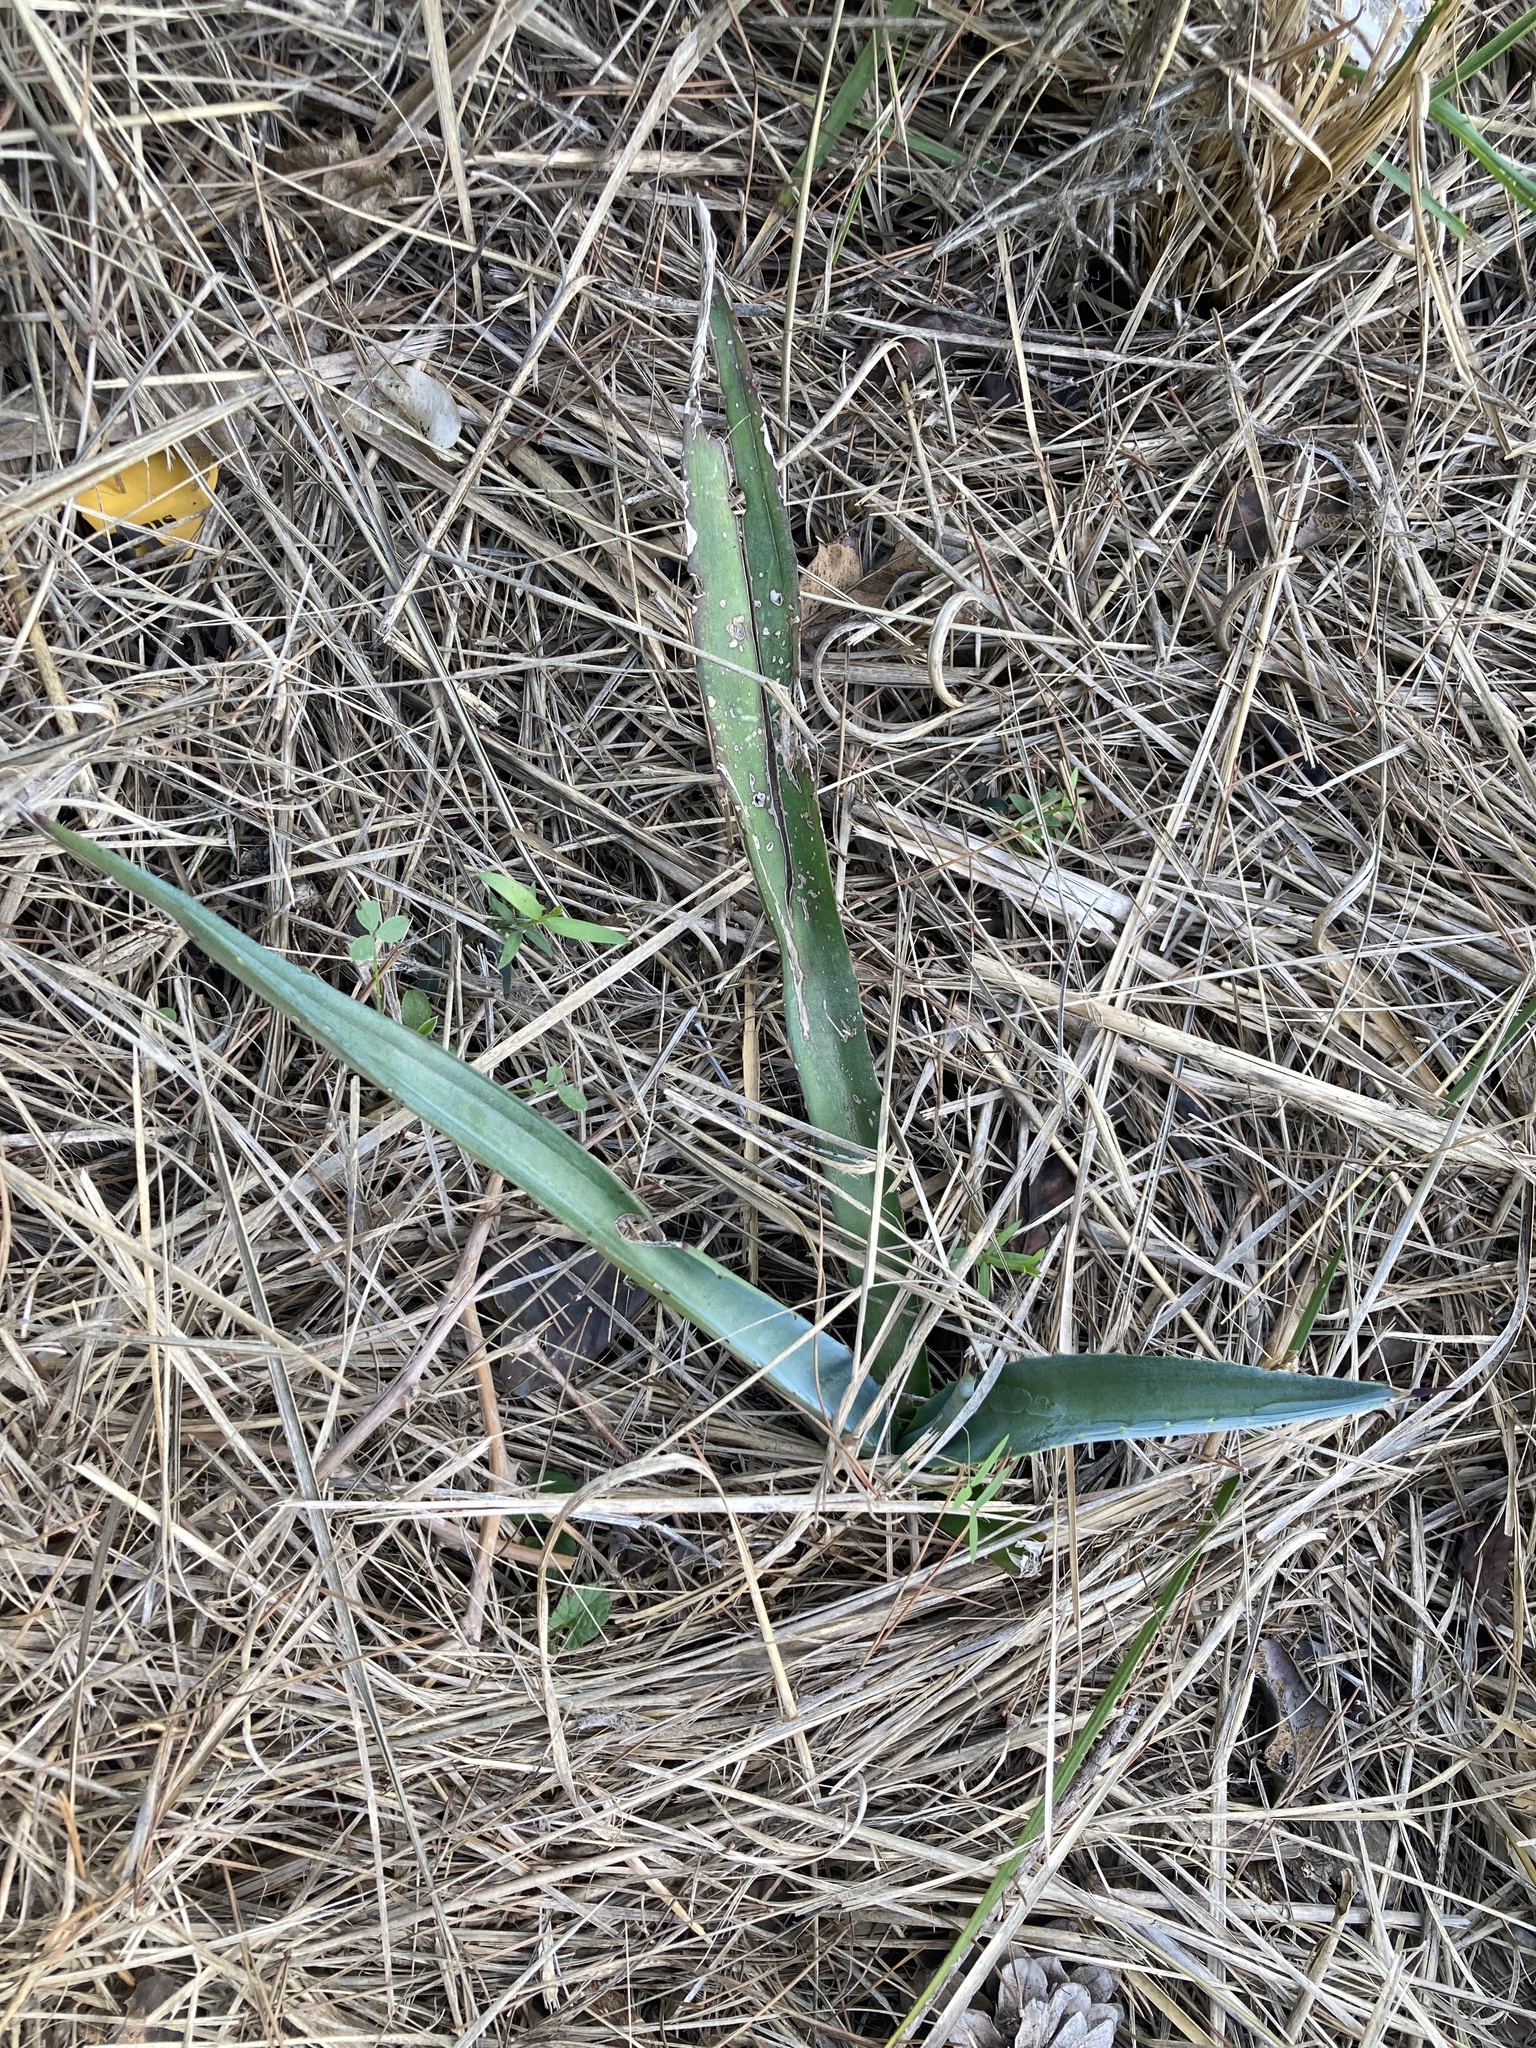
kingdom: Plantae
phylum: Tracheophyta
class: Liliopsida
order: Asparagales
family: Asparagaceae
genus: Agave
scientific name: Agave americana
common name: Centuryplant
